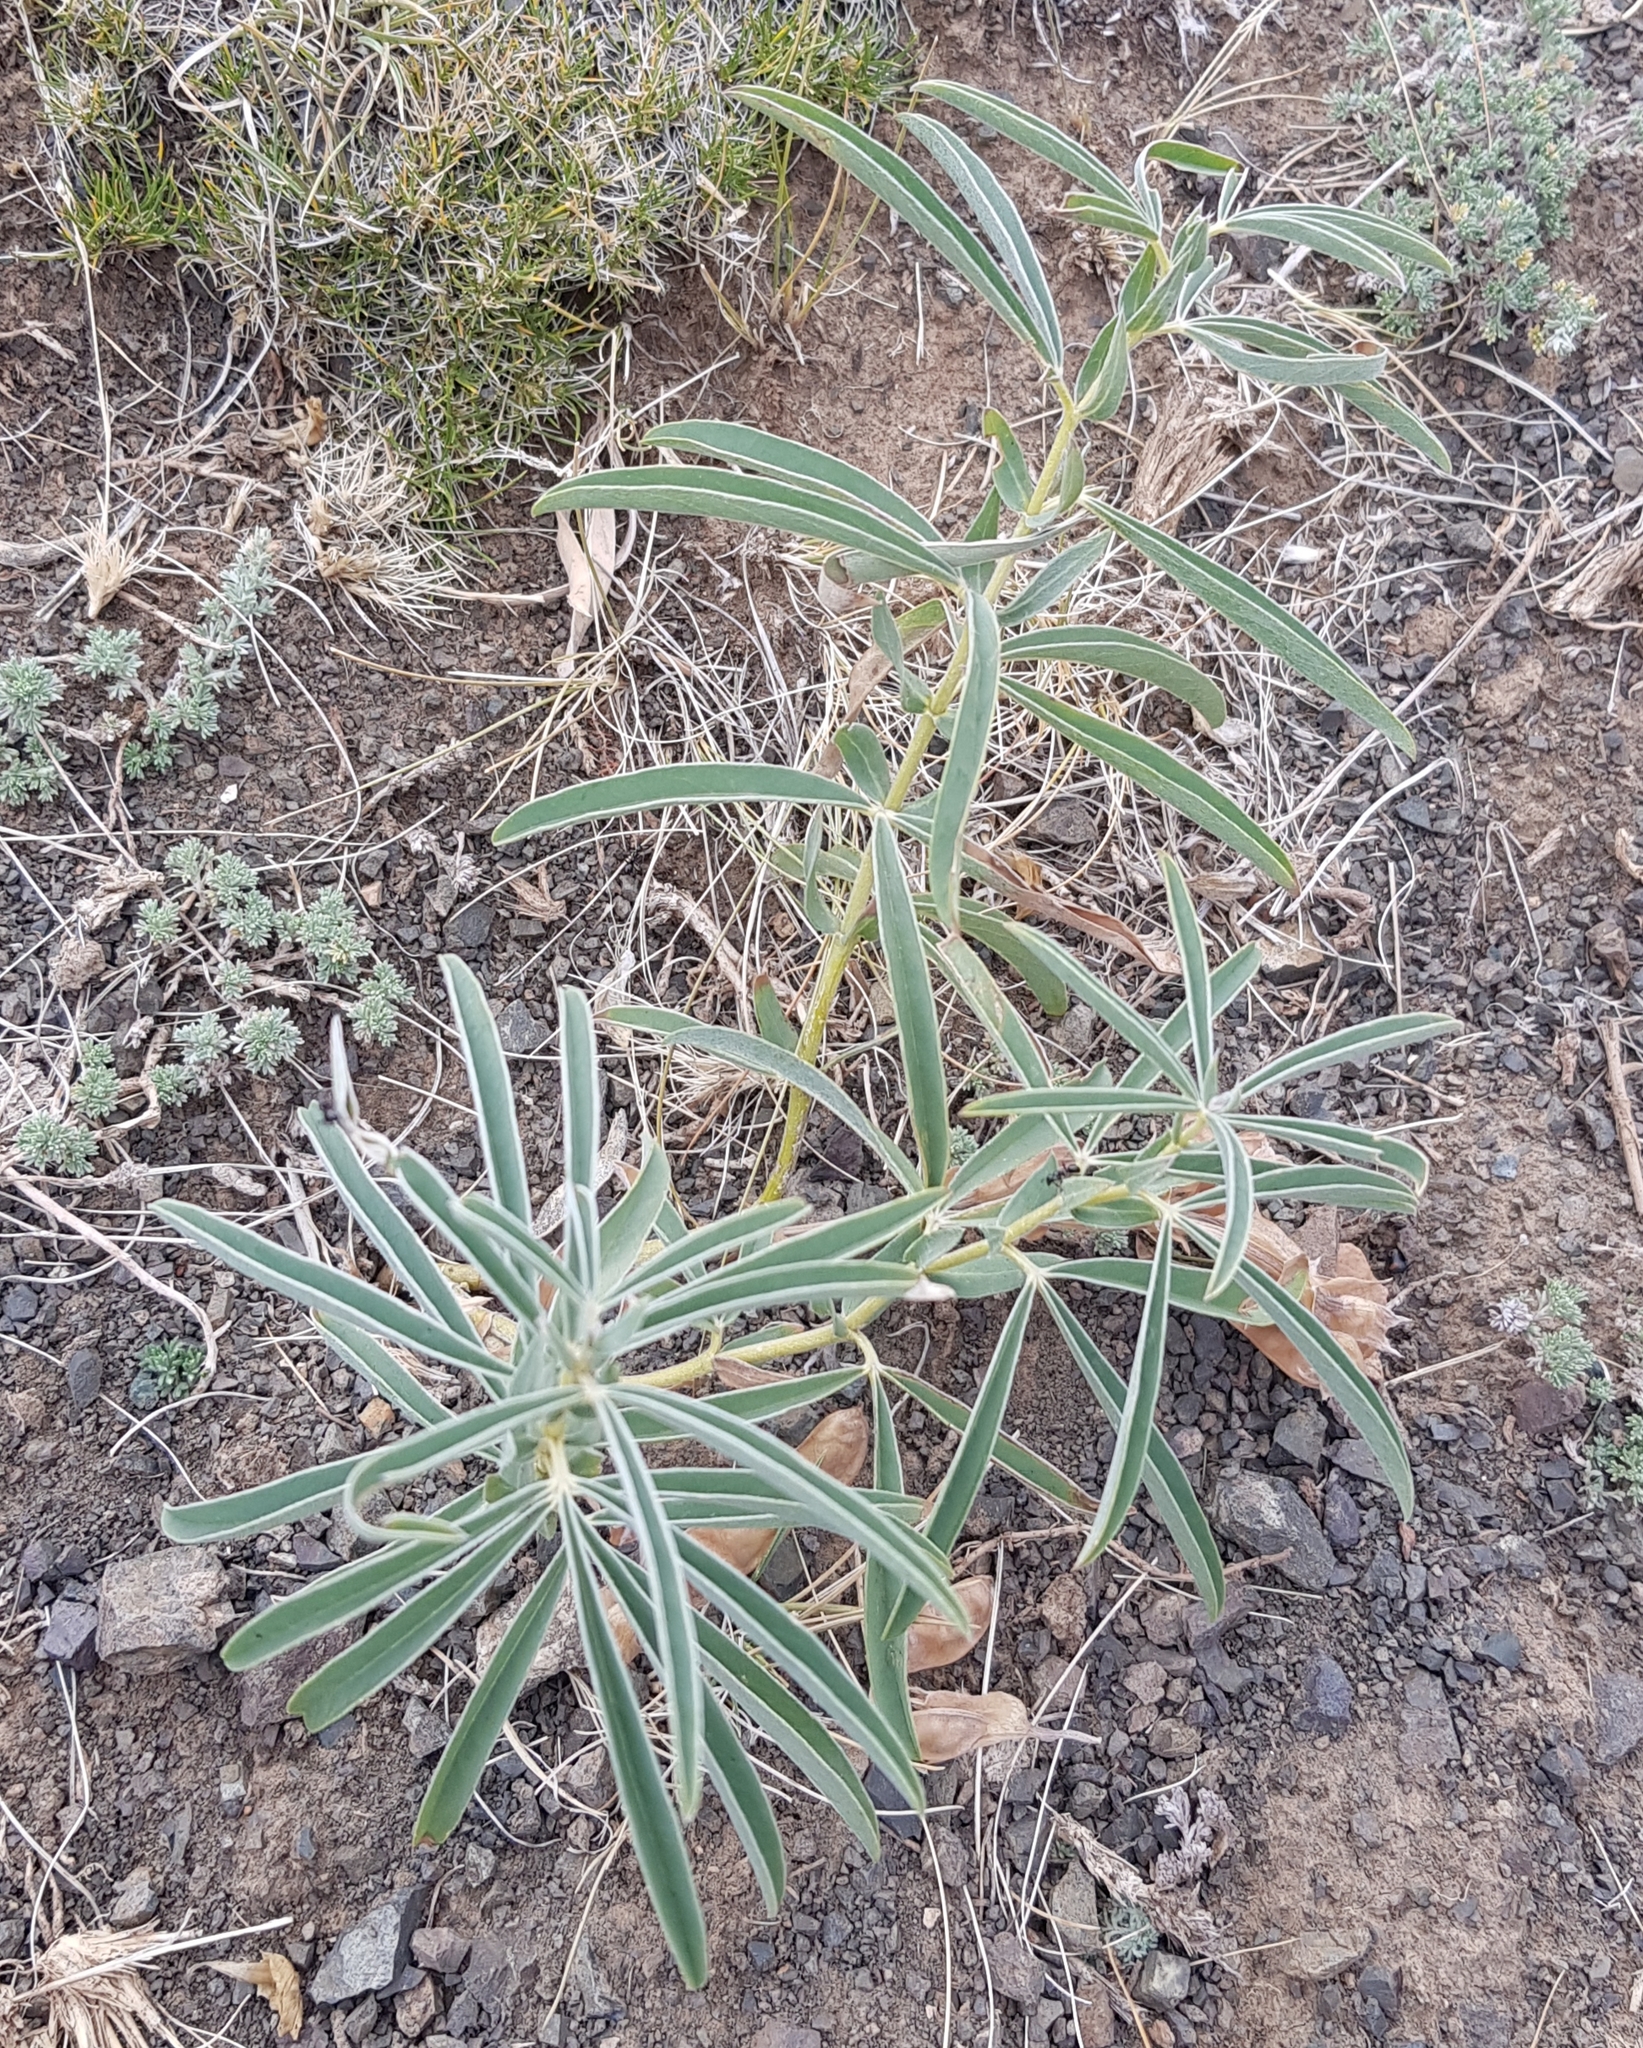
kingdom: Plantae
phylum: Tracheophyta
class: Magnoliopsida
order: Fabales
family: Fabaceae
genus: Thermopsis
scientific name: Thermopsis mongolica
